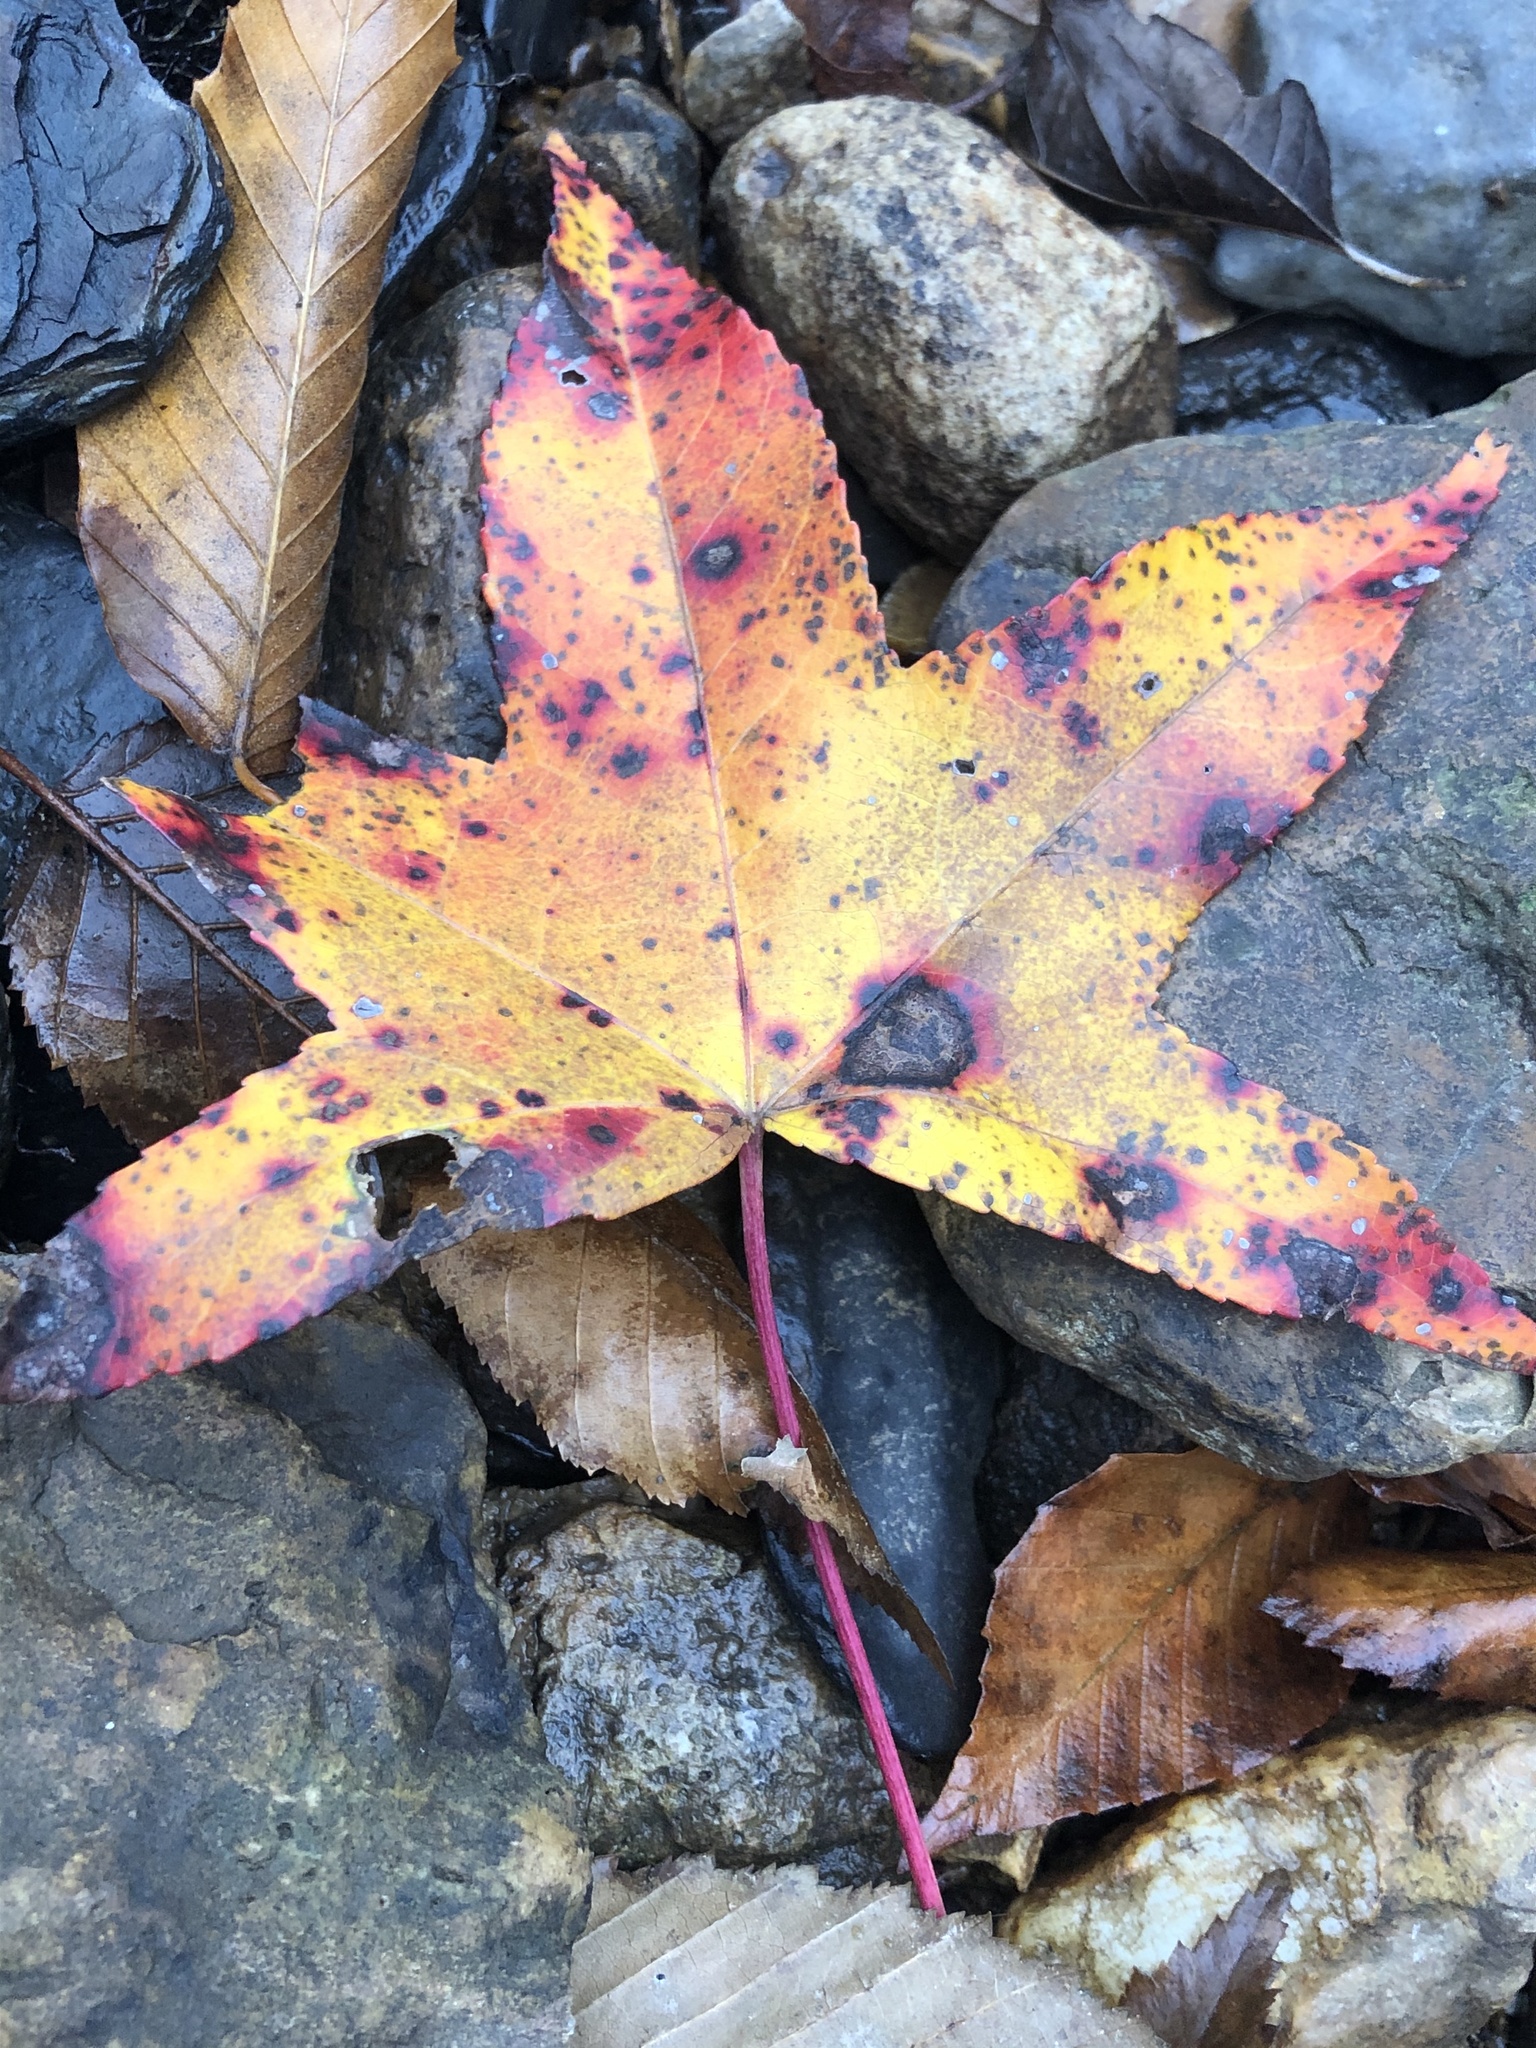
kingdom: Plantae
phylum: Tracheophyta
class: Magnoliopsida
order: Saxifragales
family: Altingiaceae
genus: Liquidambar
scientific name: Liquidambar styraciflua
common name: Sweet gum
